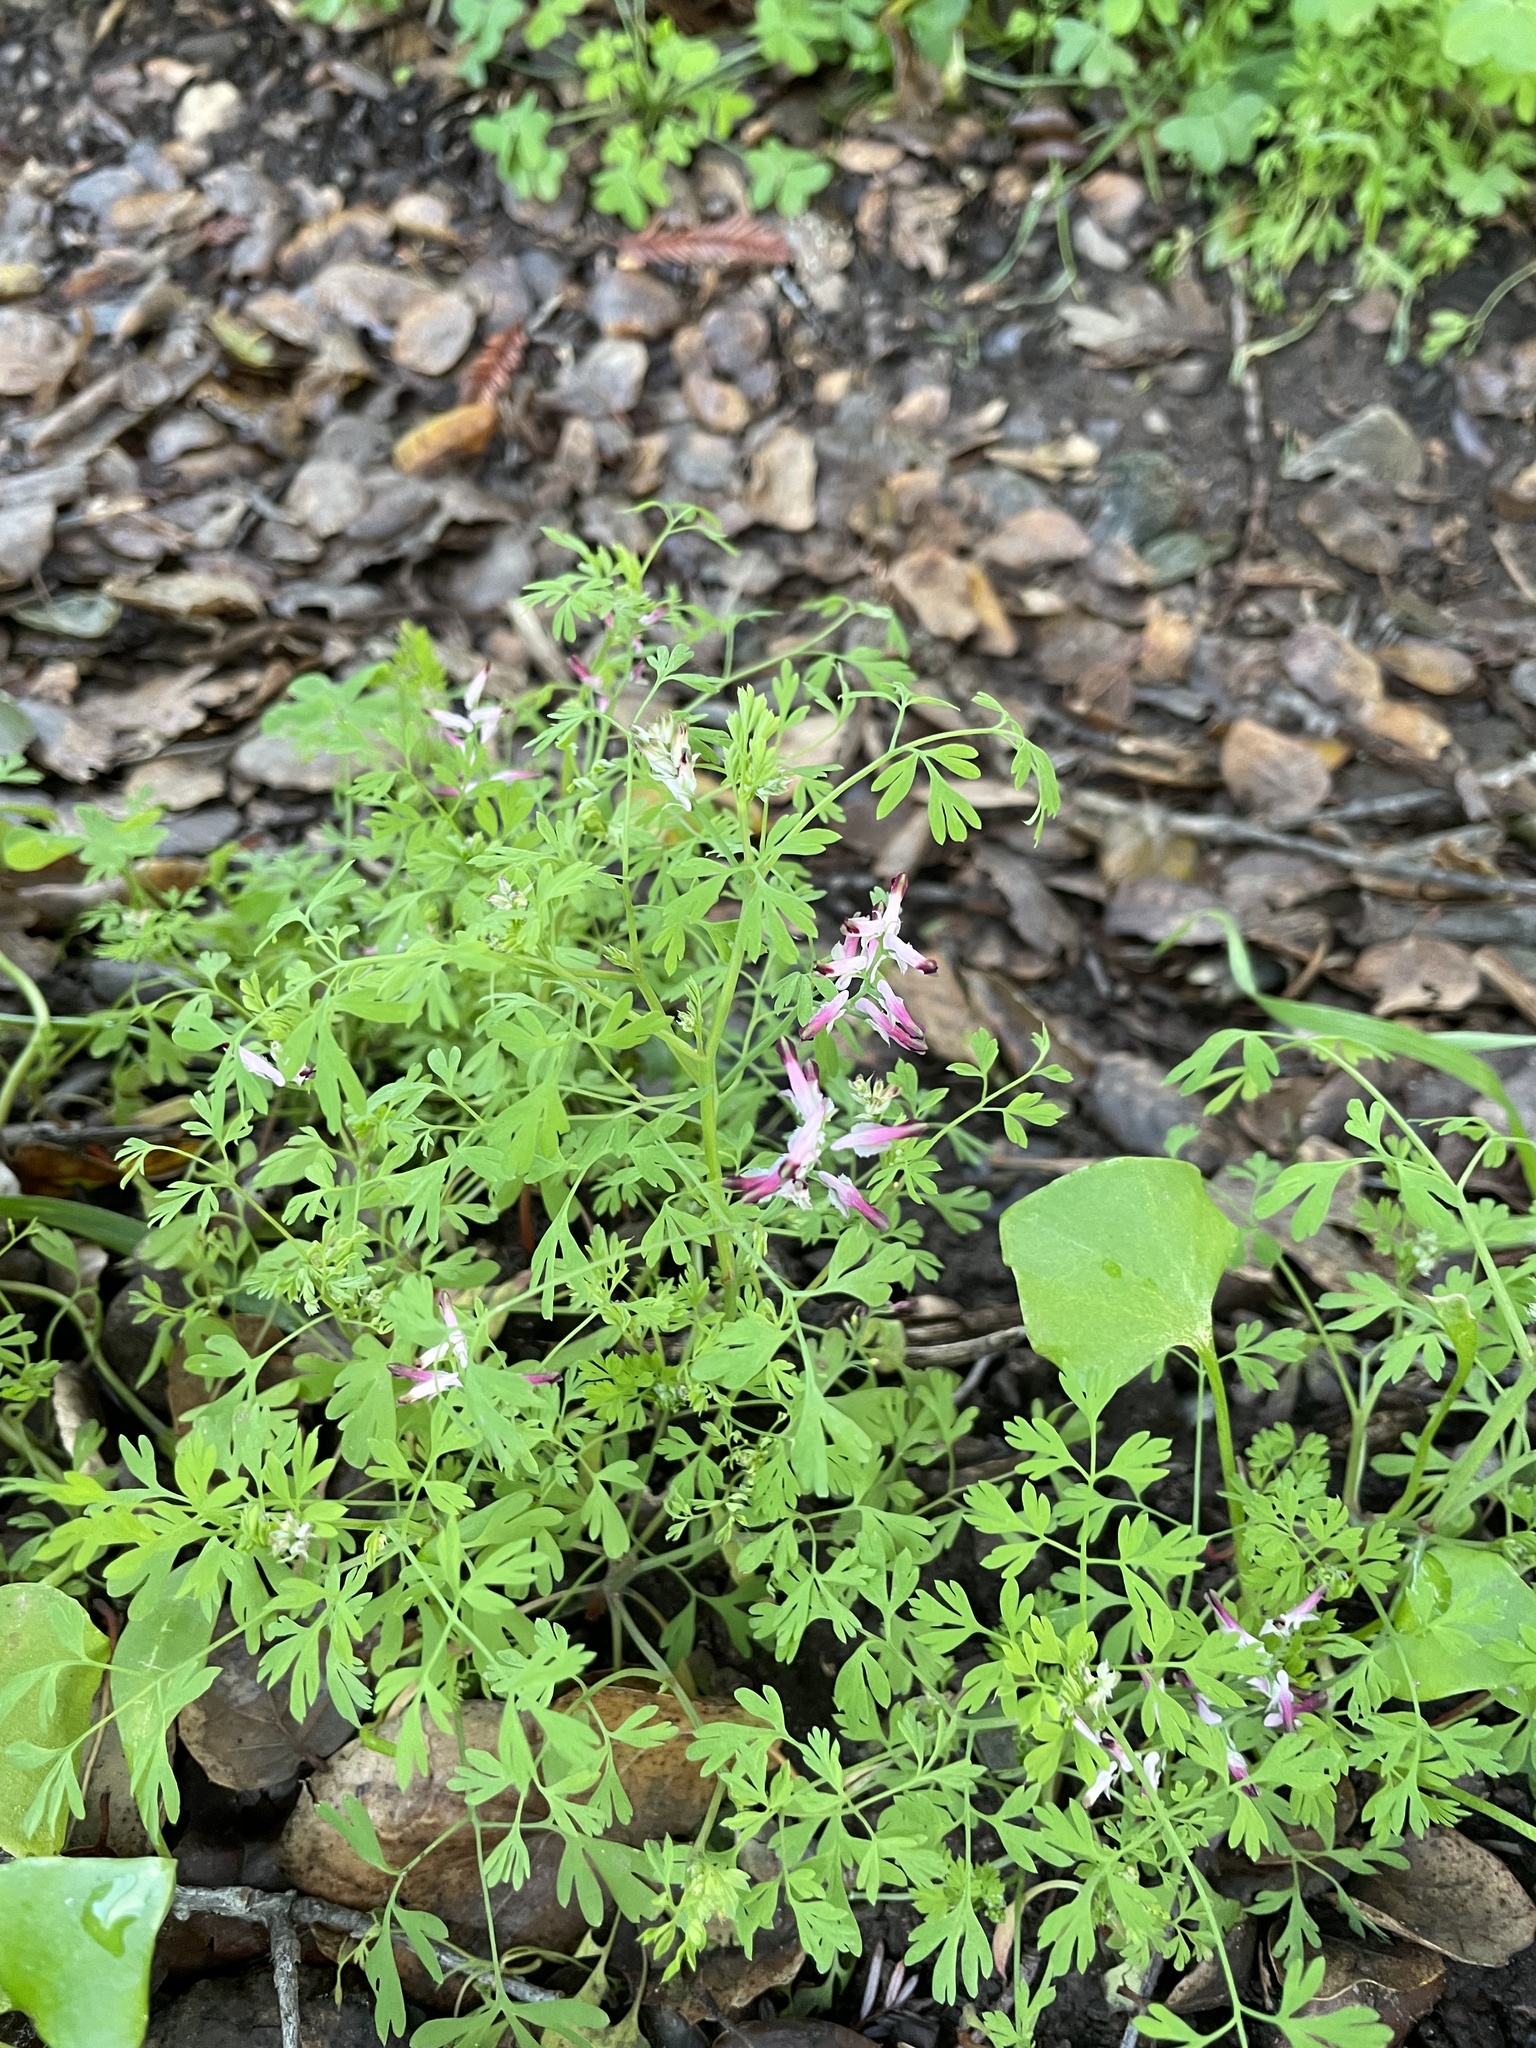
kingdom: Plantae
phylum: Tracheophyta
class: Magnoliopsida
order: Ranunculales
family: Papaveraceae
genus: Fumaria
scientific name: Fumaria muralis
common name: Common ramping-fumitory
